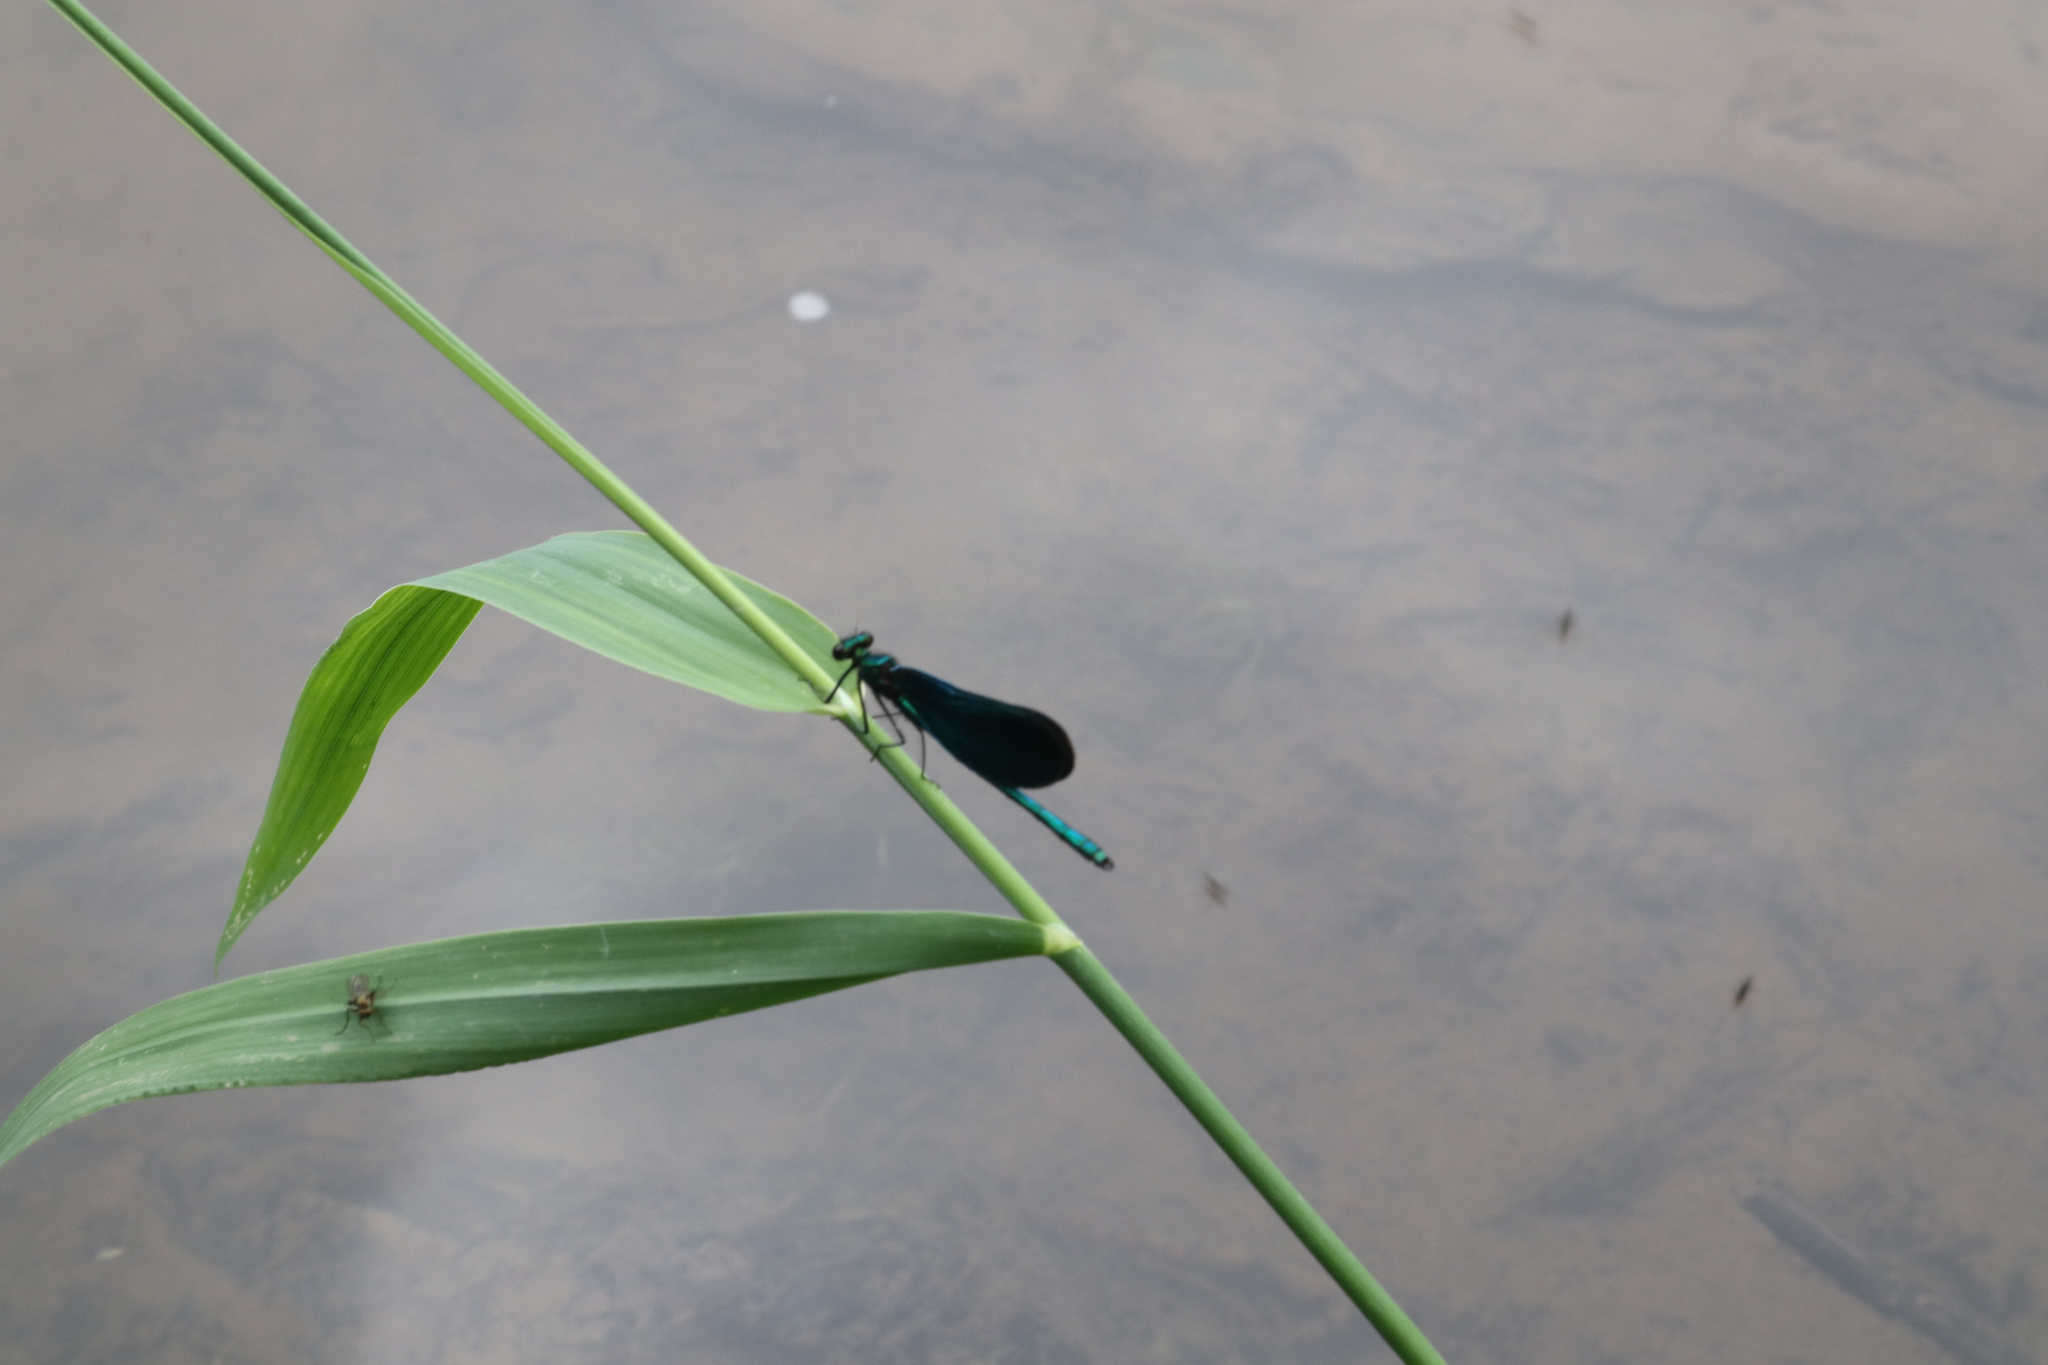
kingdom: Animalia
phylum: Arthropoda
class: Insecta
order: Odonata
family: Calopterygidae
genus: Calopteryx
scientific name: Calopteryx virgo
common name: Beautiful demoiselle
